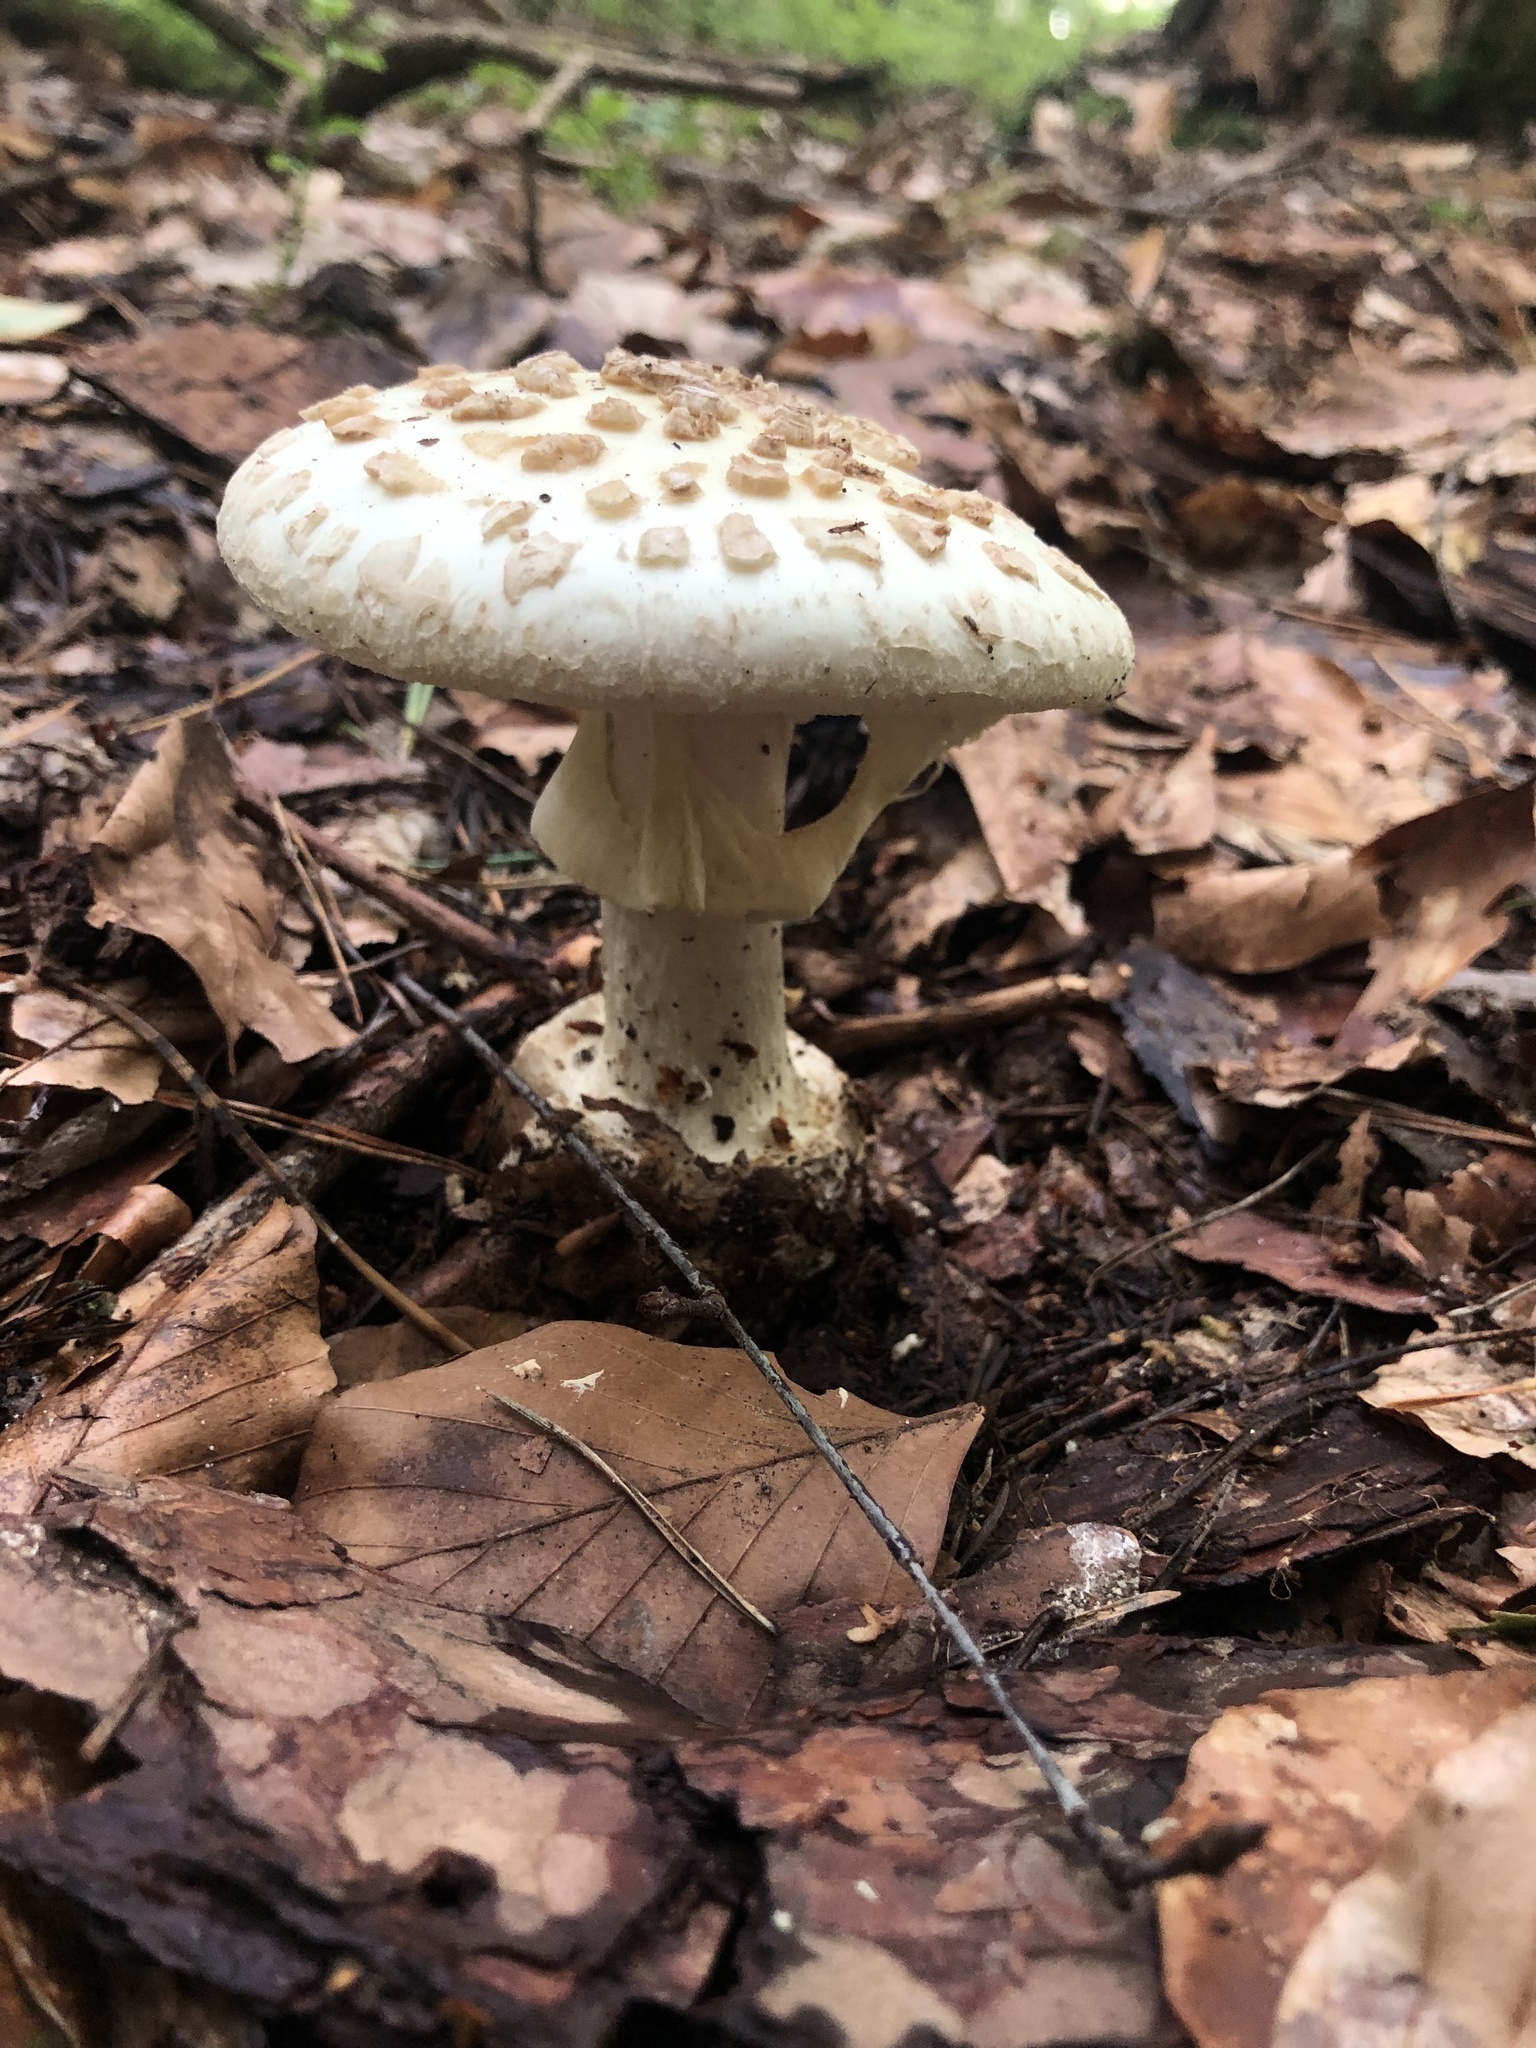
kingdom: Fungi
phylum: Basidiomycota
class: Agaricomycetes
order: Agaricales
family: Amanitaceae
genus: Amanita
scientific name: Amanita citrina
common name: False death-cap
